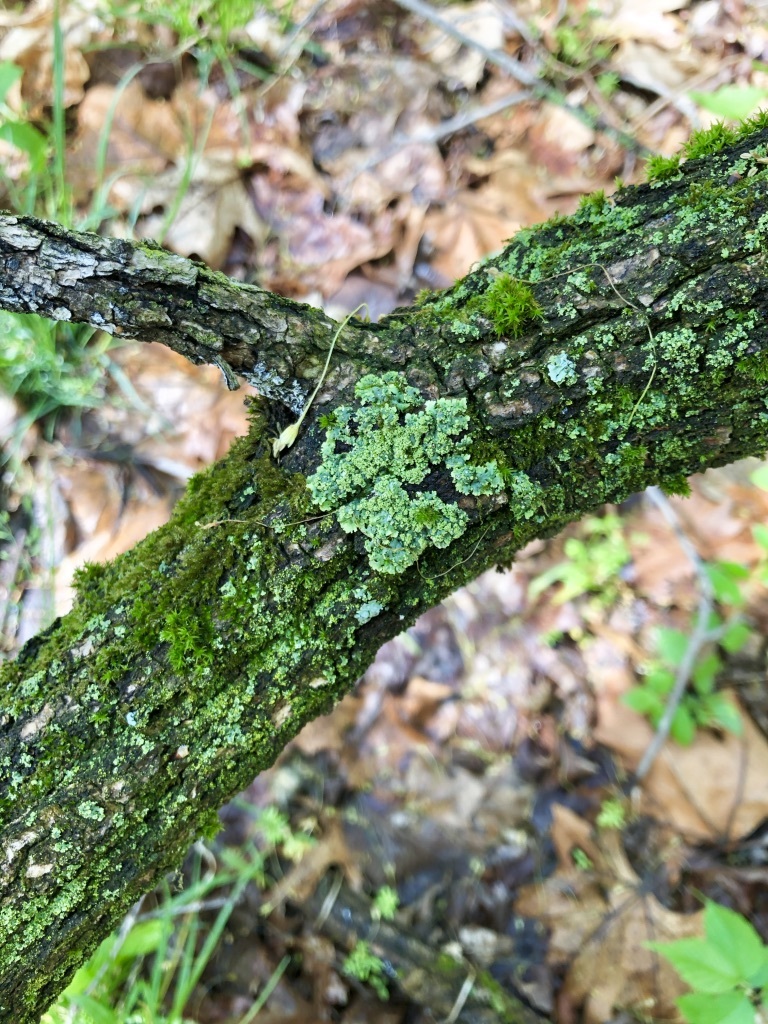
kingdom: Fungi
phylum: Ascomycota
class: Lecanoromycetes
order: Caliciales
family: Physciaceae
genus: Physcia
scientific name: Physcia millegrana
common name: Rosette lichen
